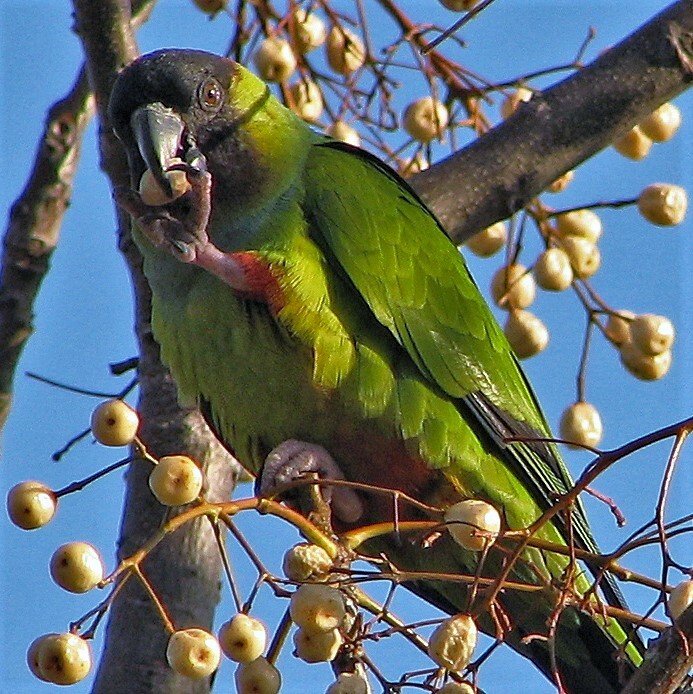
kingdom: Animalia
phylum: Chordata
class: Aves
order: Psittaciformes
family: Psittacidae
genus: Nandayus
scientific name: Nandayus nenday
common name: Nanday parakeet
